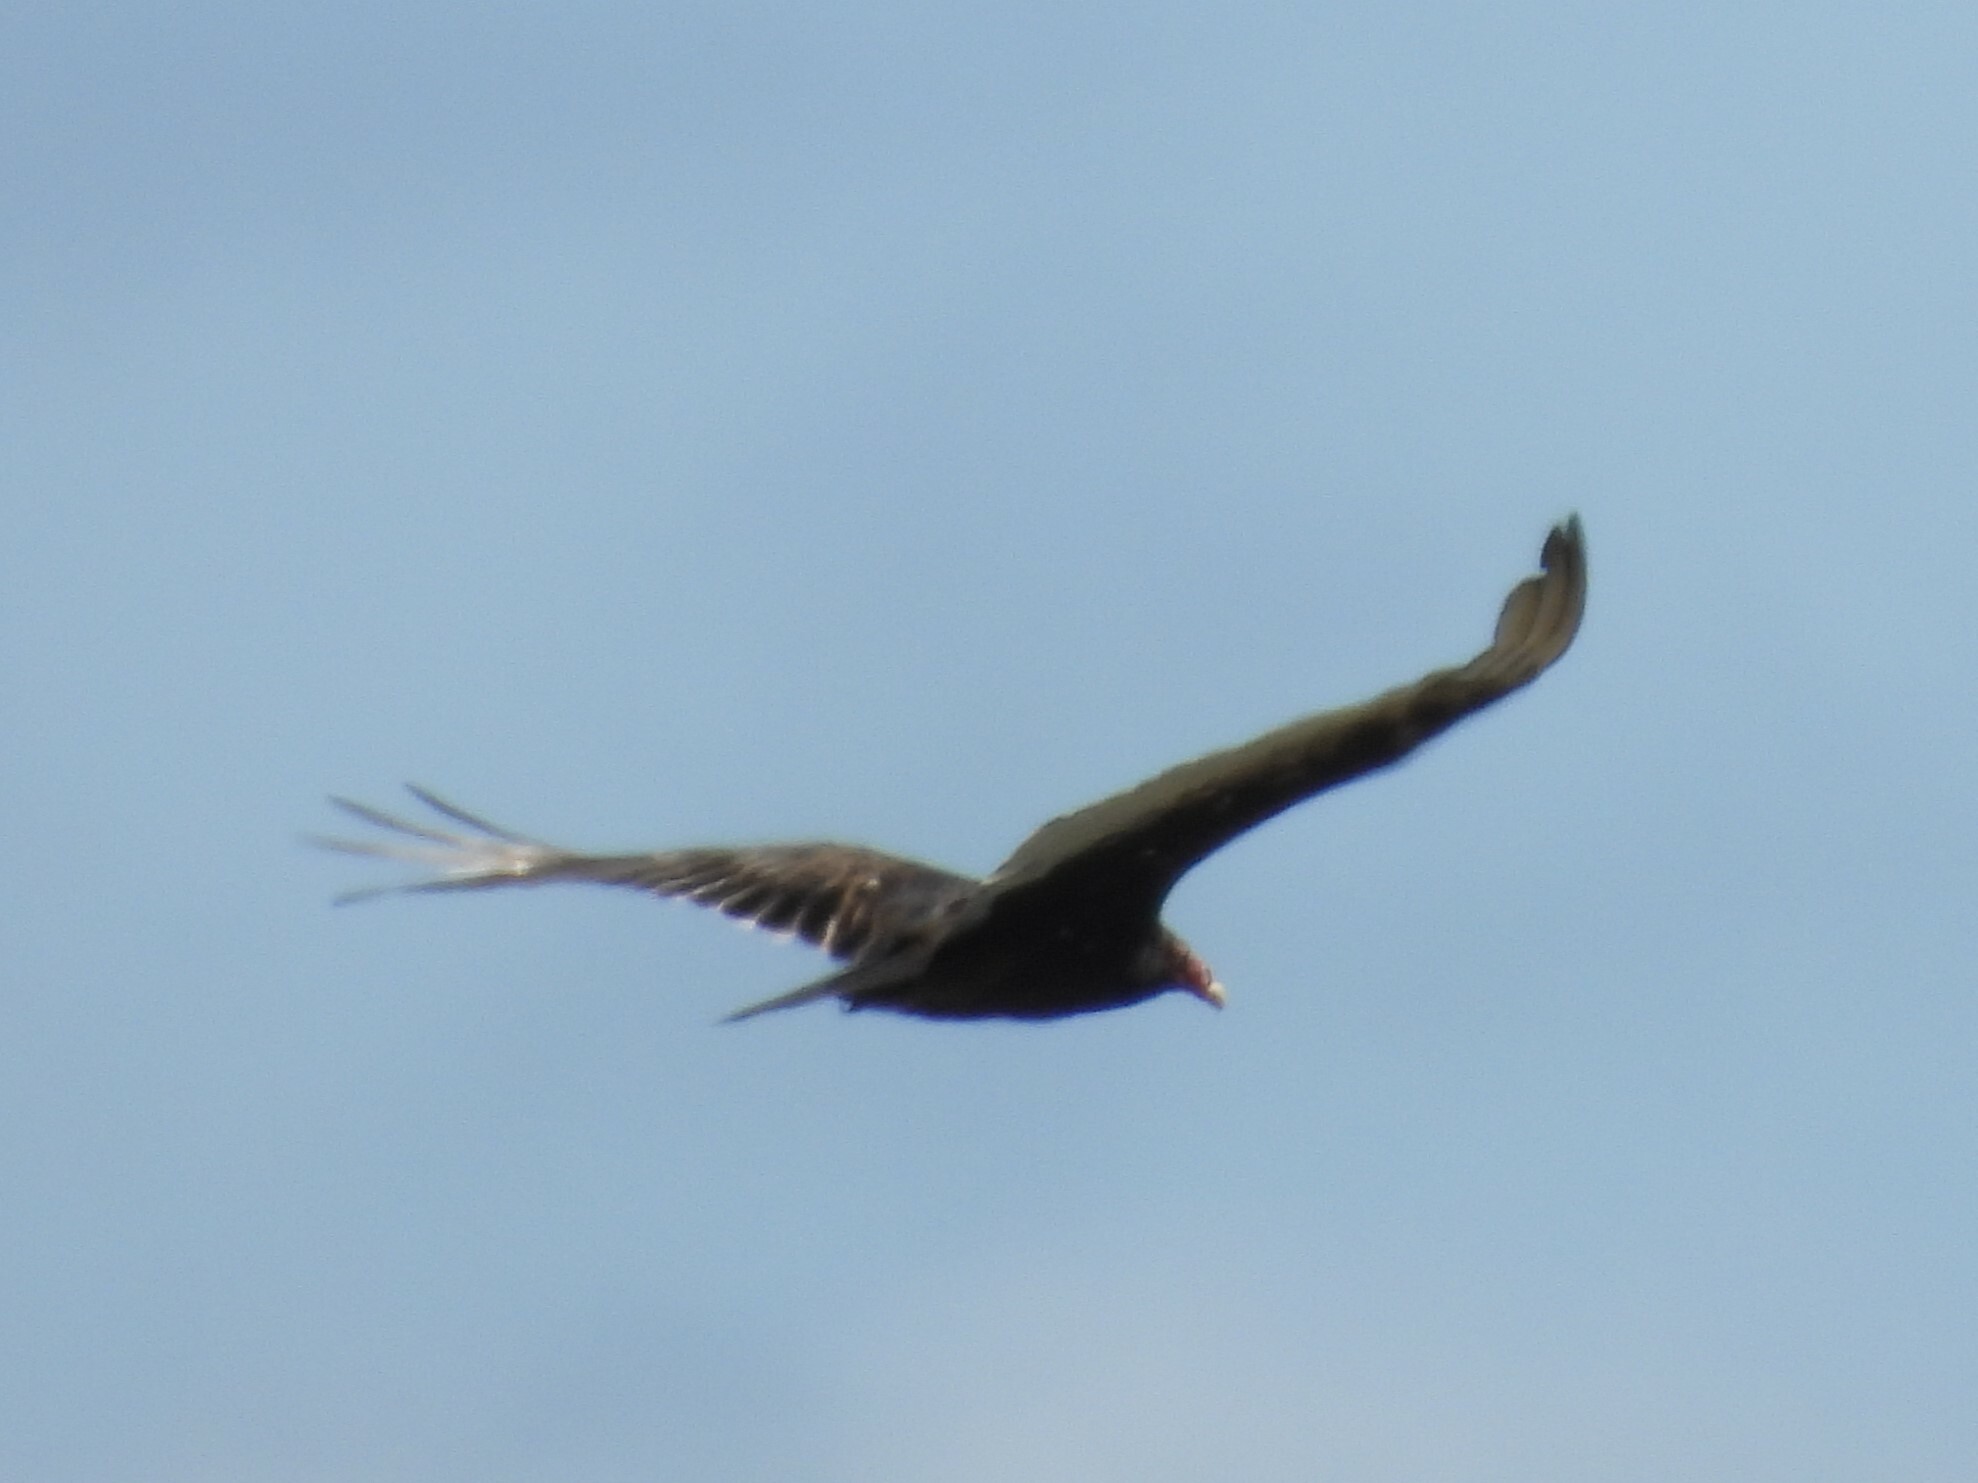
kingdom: Animalia
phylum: Chordata
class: Aves
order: Accipitriformes
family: Cathartidae
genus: Cathartes
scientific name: Cathartes aura
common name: Turkey vulture
